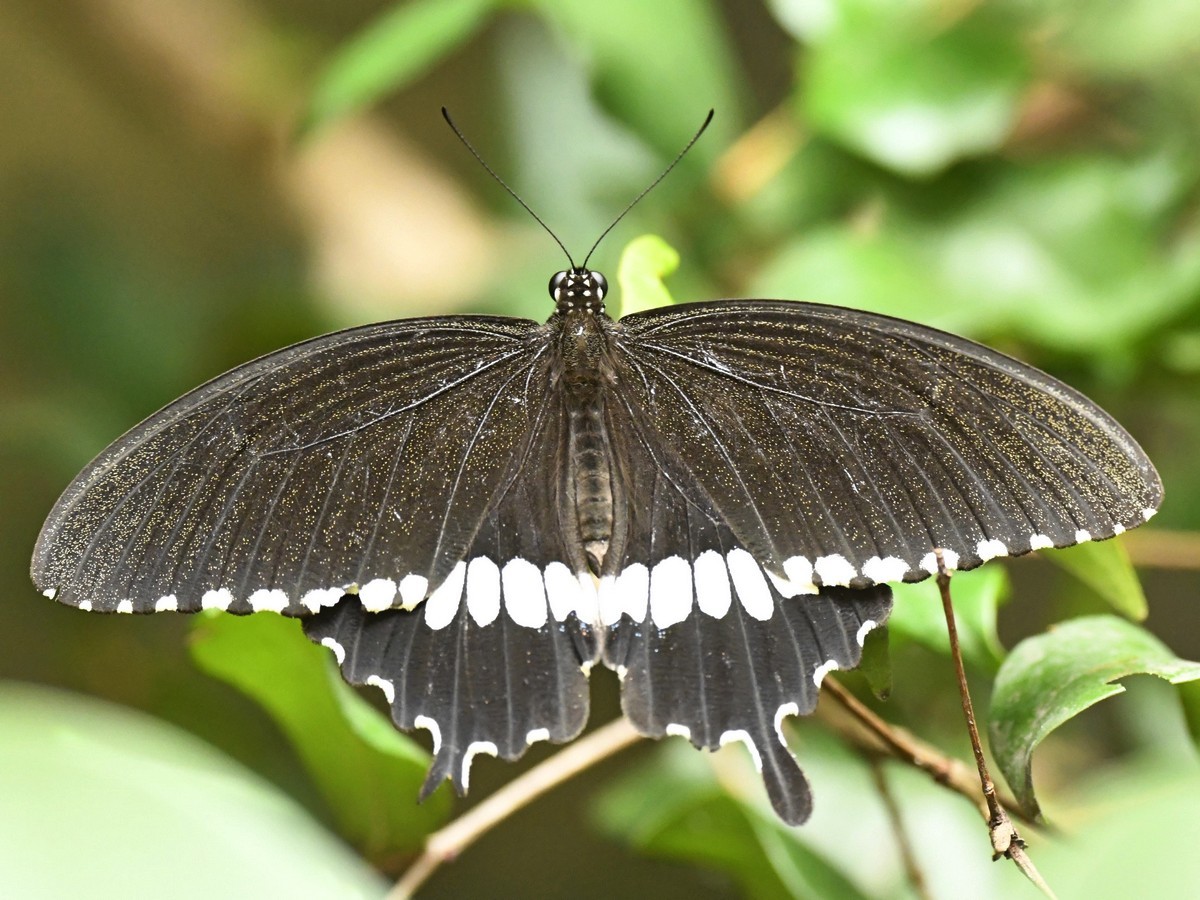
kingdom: Animalia
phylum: Arthropoda
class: Insecta
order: Lepidoptera
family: Papilionidae
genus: Papilio
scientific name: Papilio polytes
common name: Common mormon
